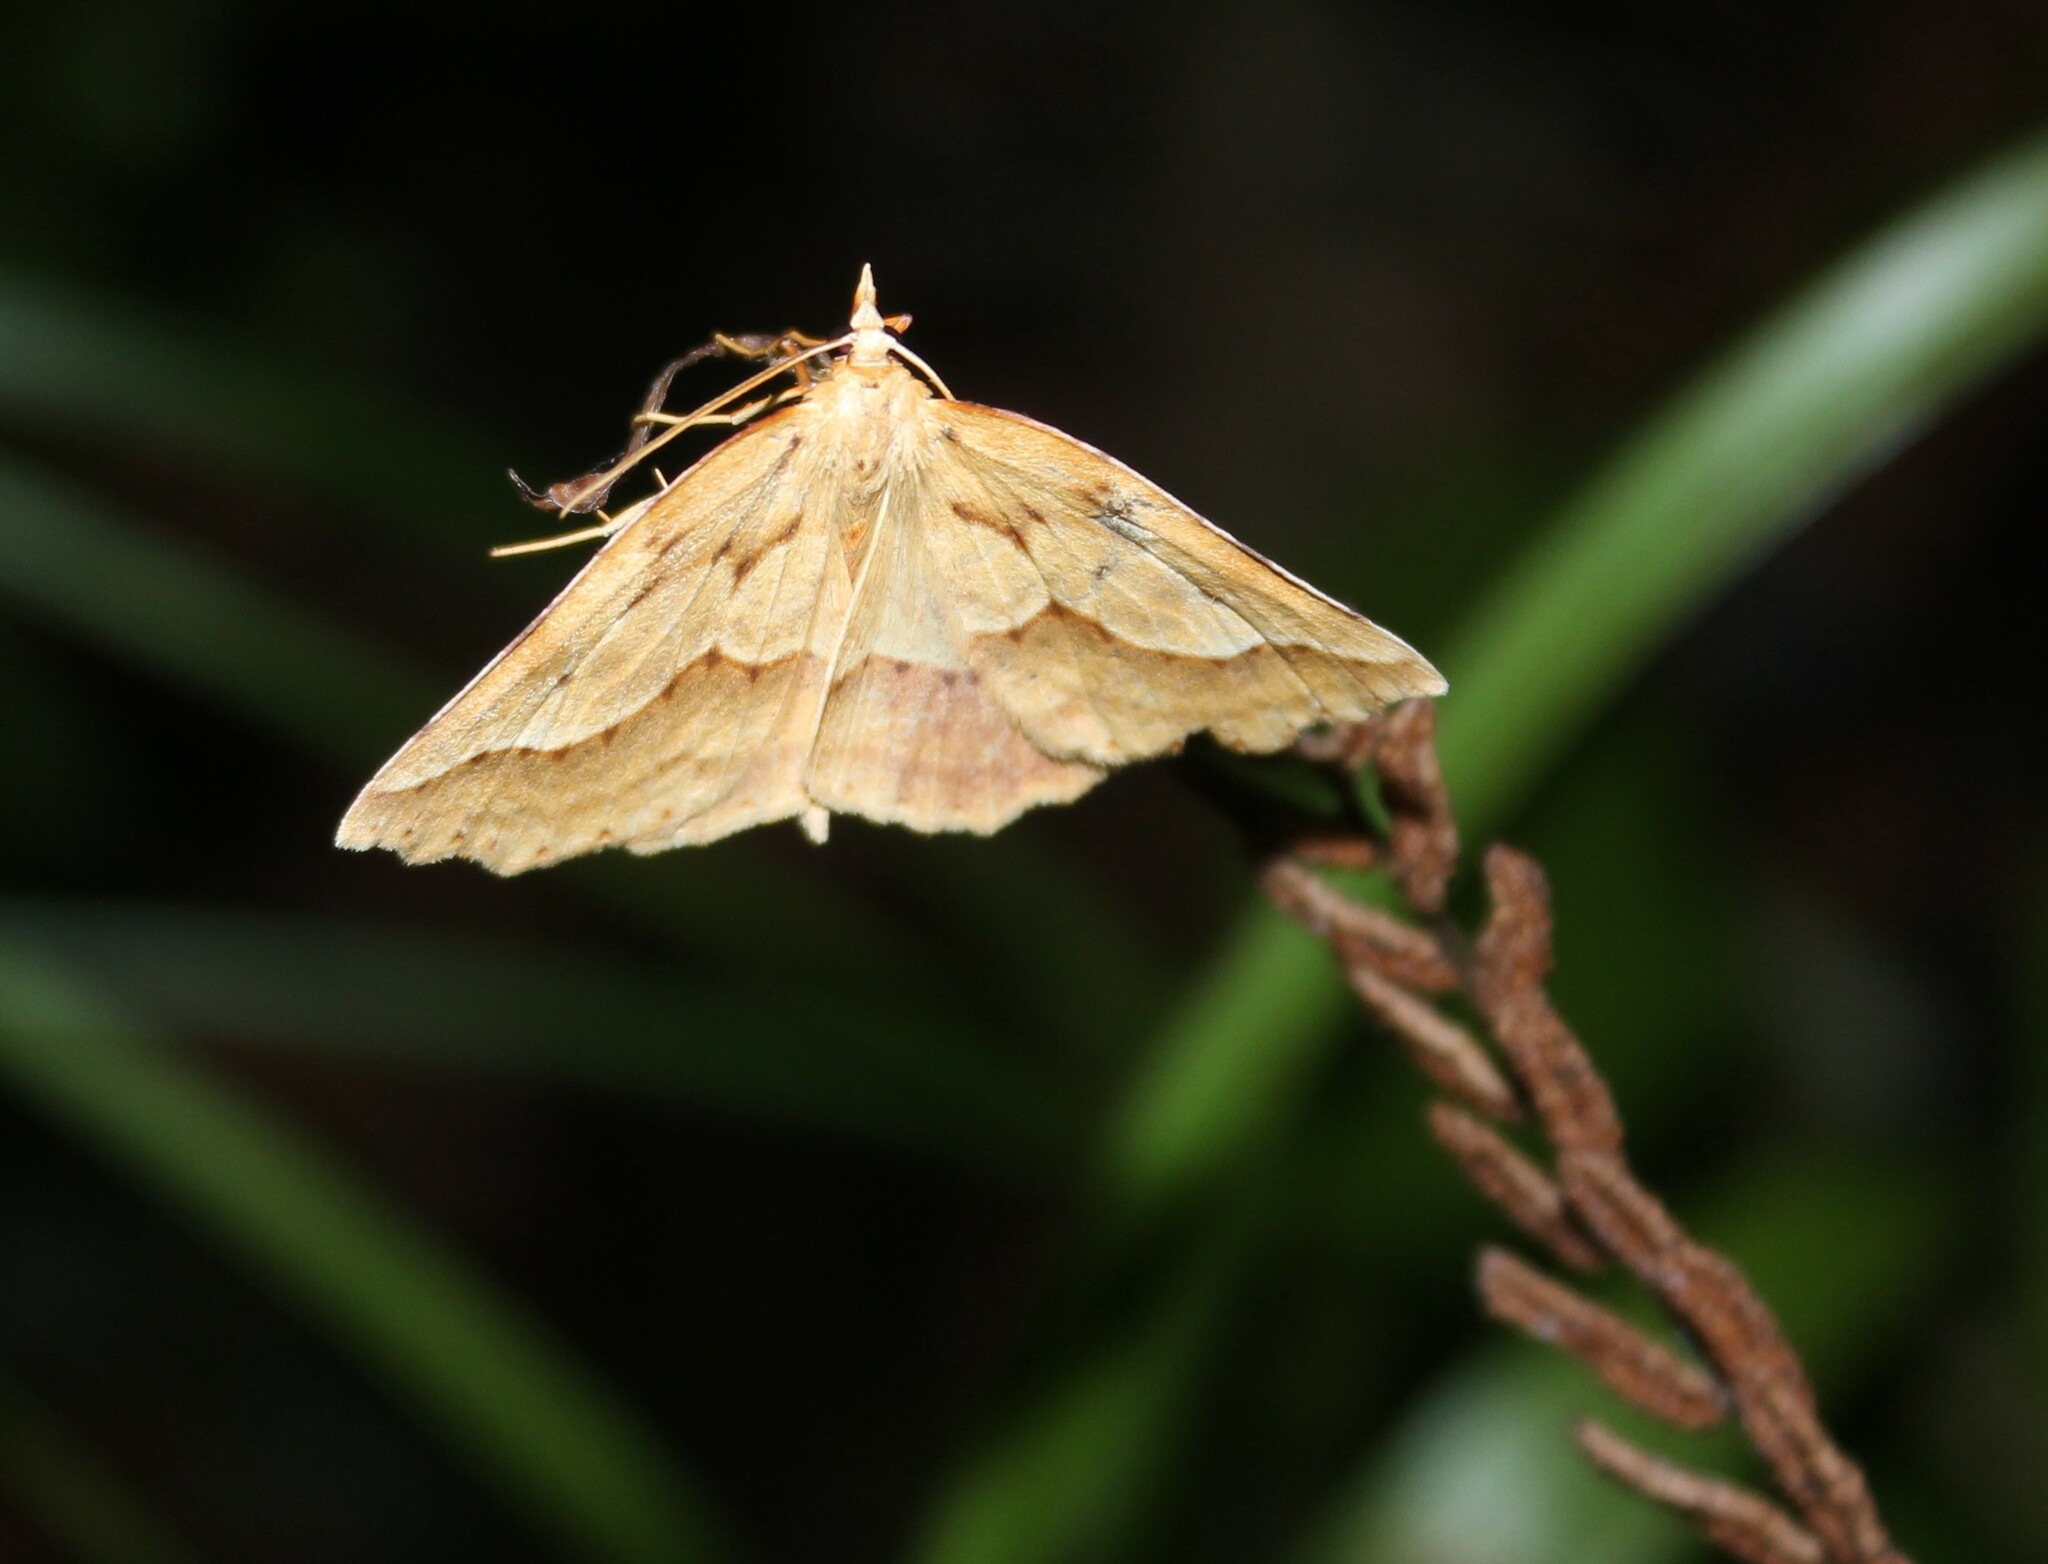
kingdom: Animalia
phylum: Arthropoda
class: Insecta
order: Lepidoptera
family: Geometridae
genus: Ischalis
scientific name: Ischalis variabilis
